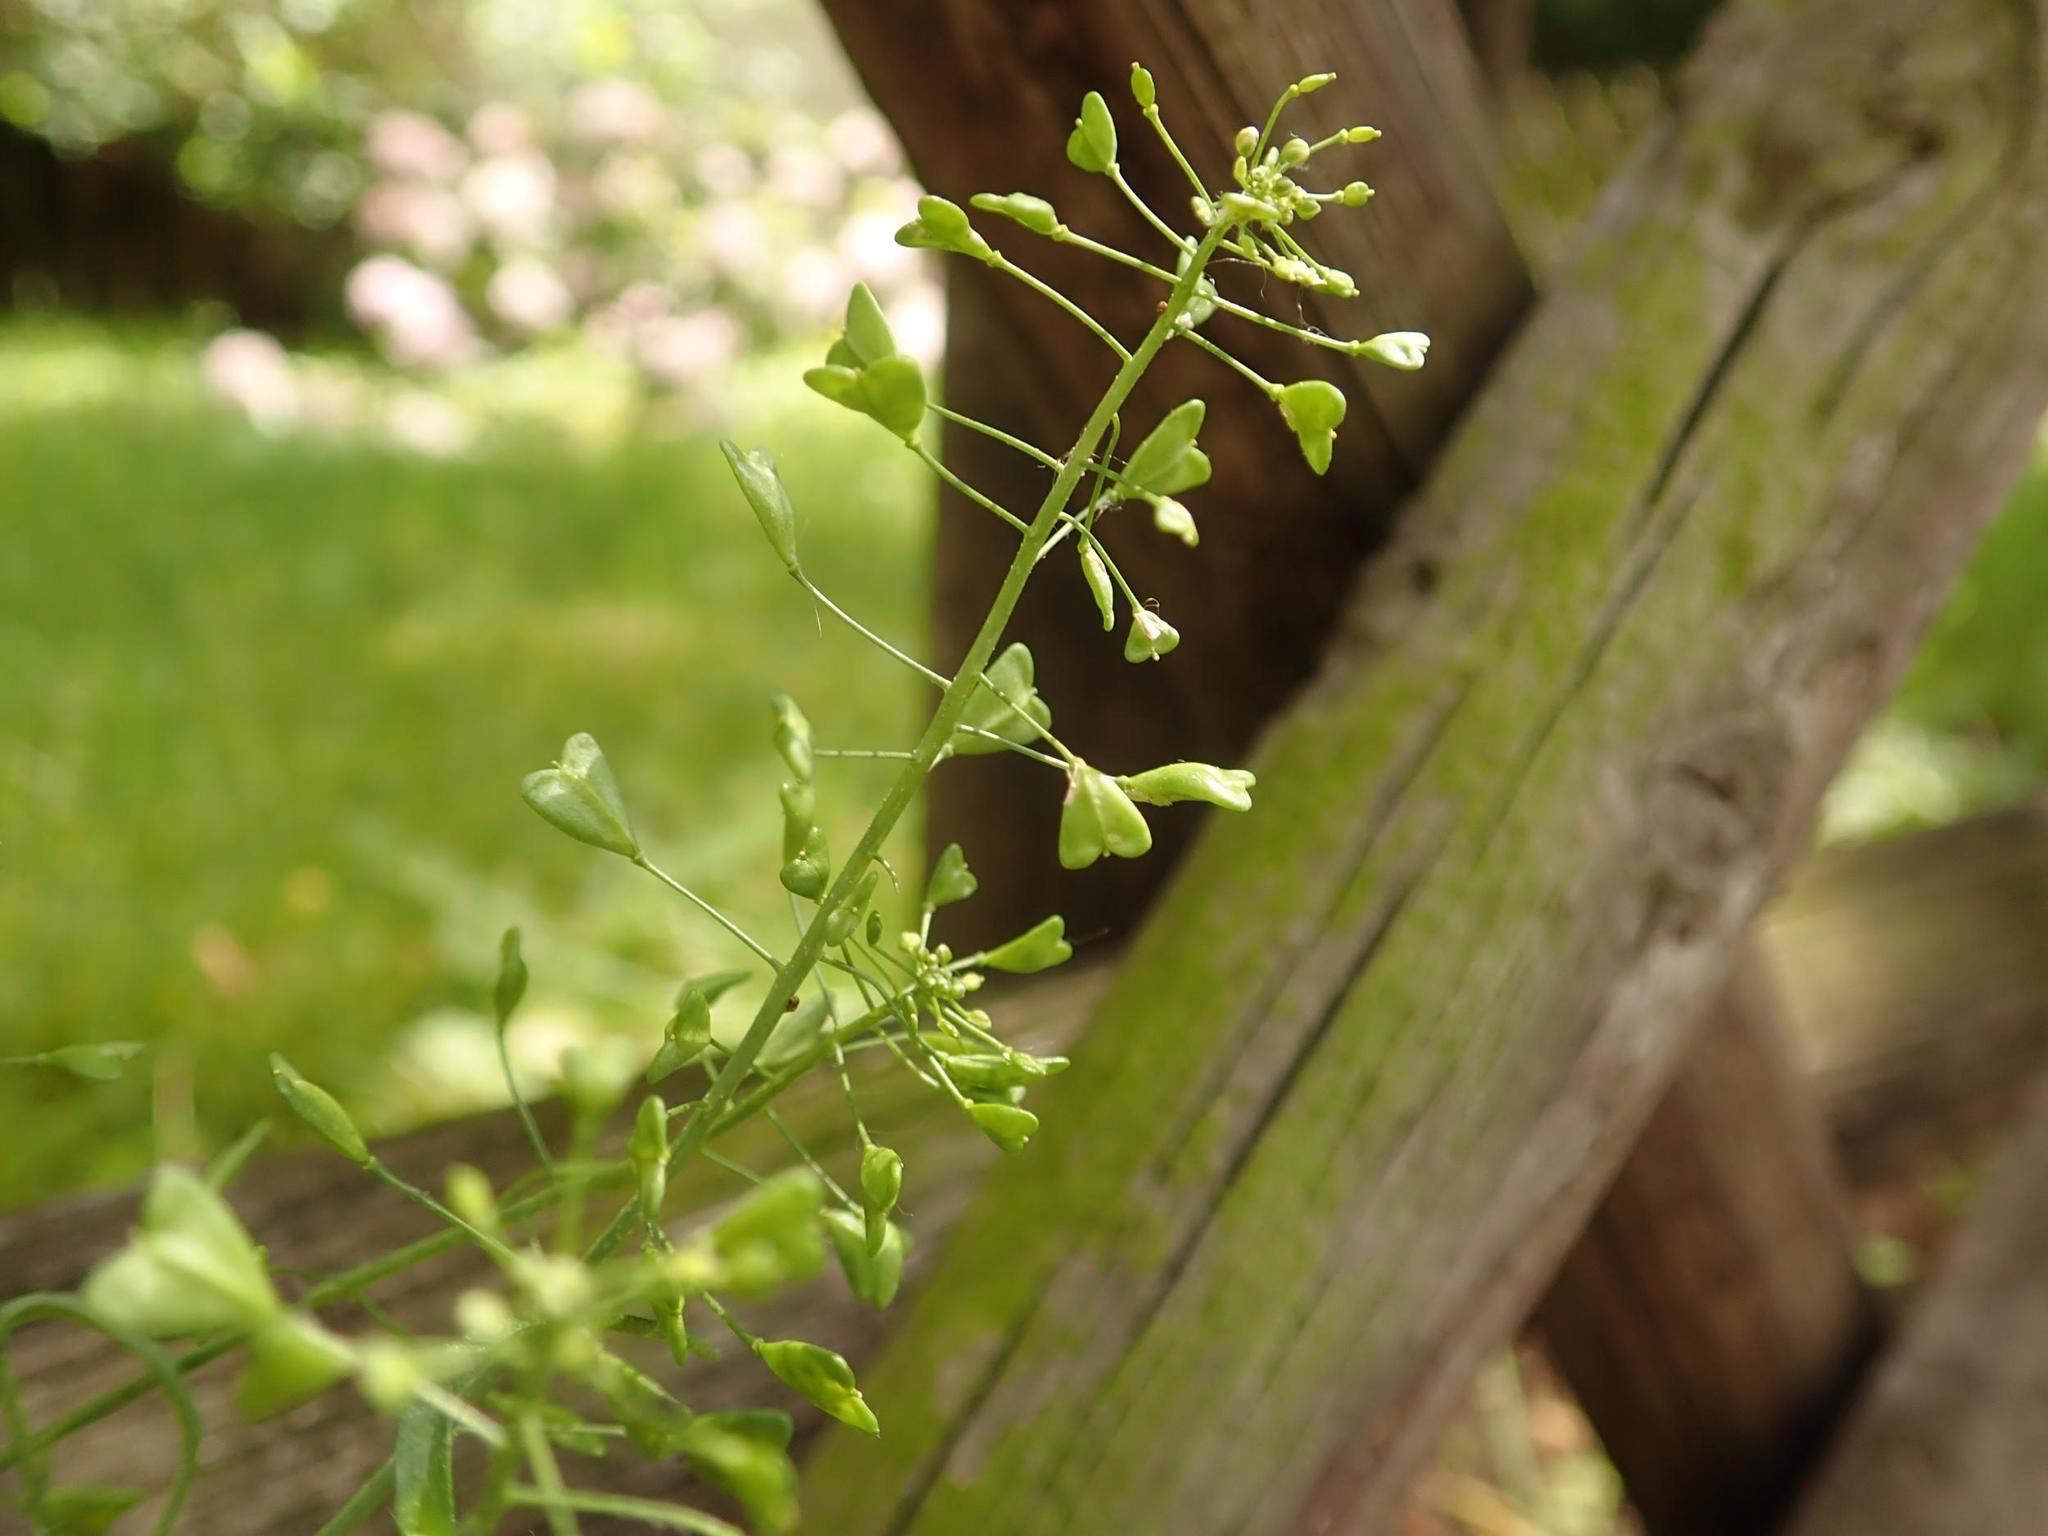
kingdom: Plantae
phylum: Tracheophyta
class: Magnoliopsida
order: Brassicales
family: Brassicaceae
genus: Capsella
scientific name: Capsella bursa-pastoris
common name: Shepherd's purse
